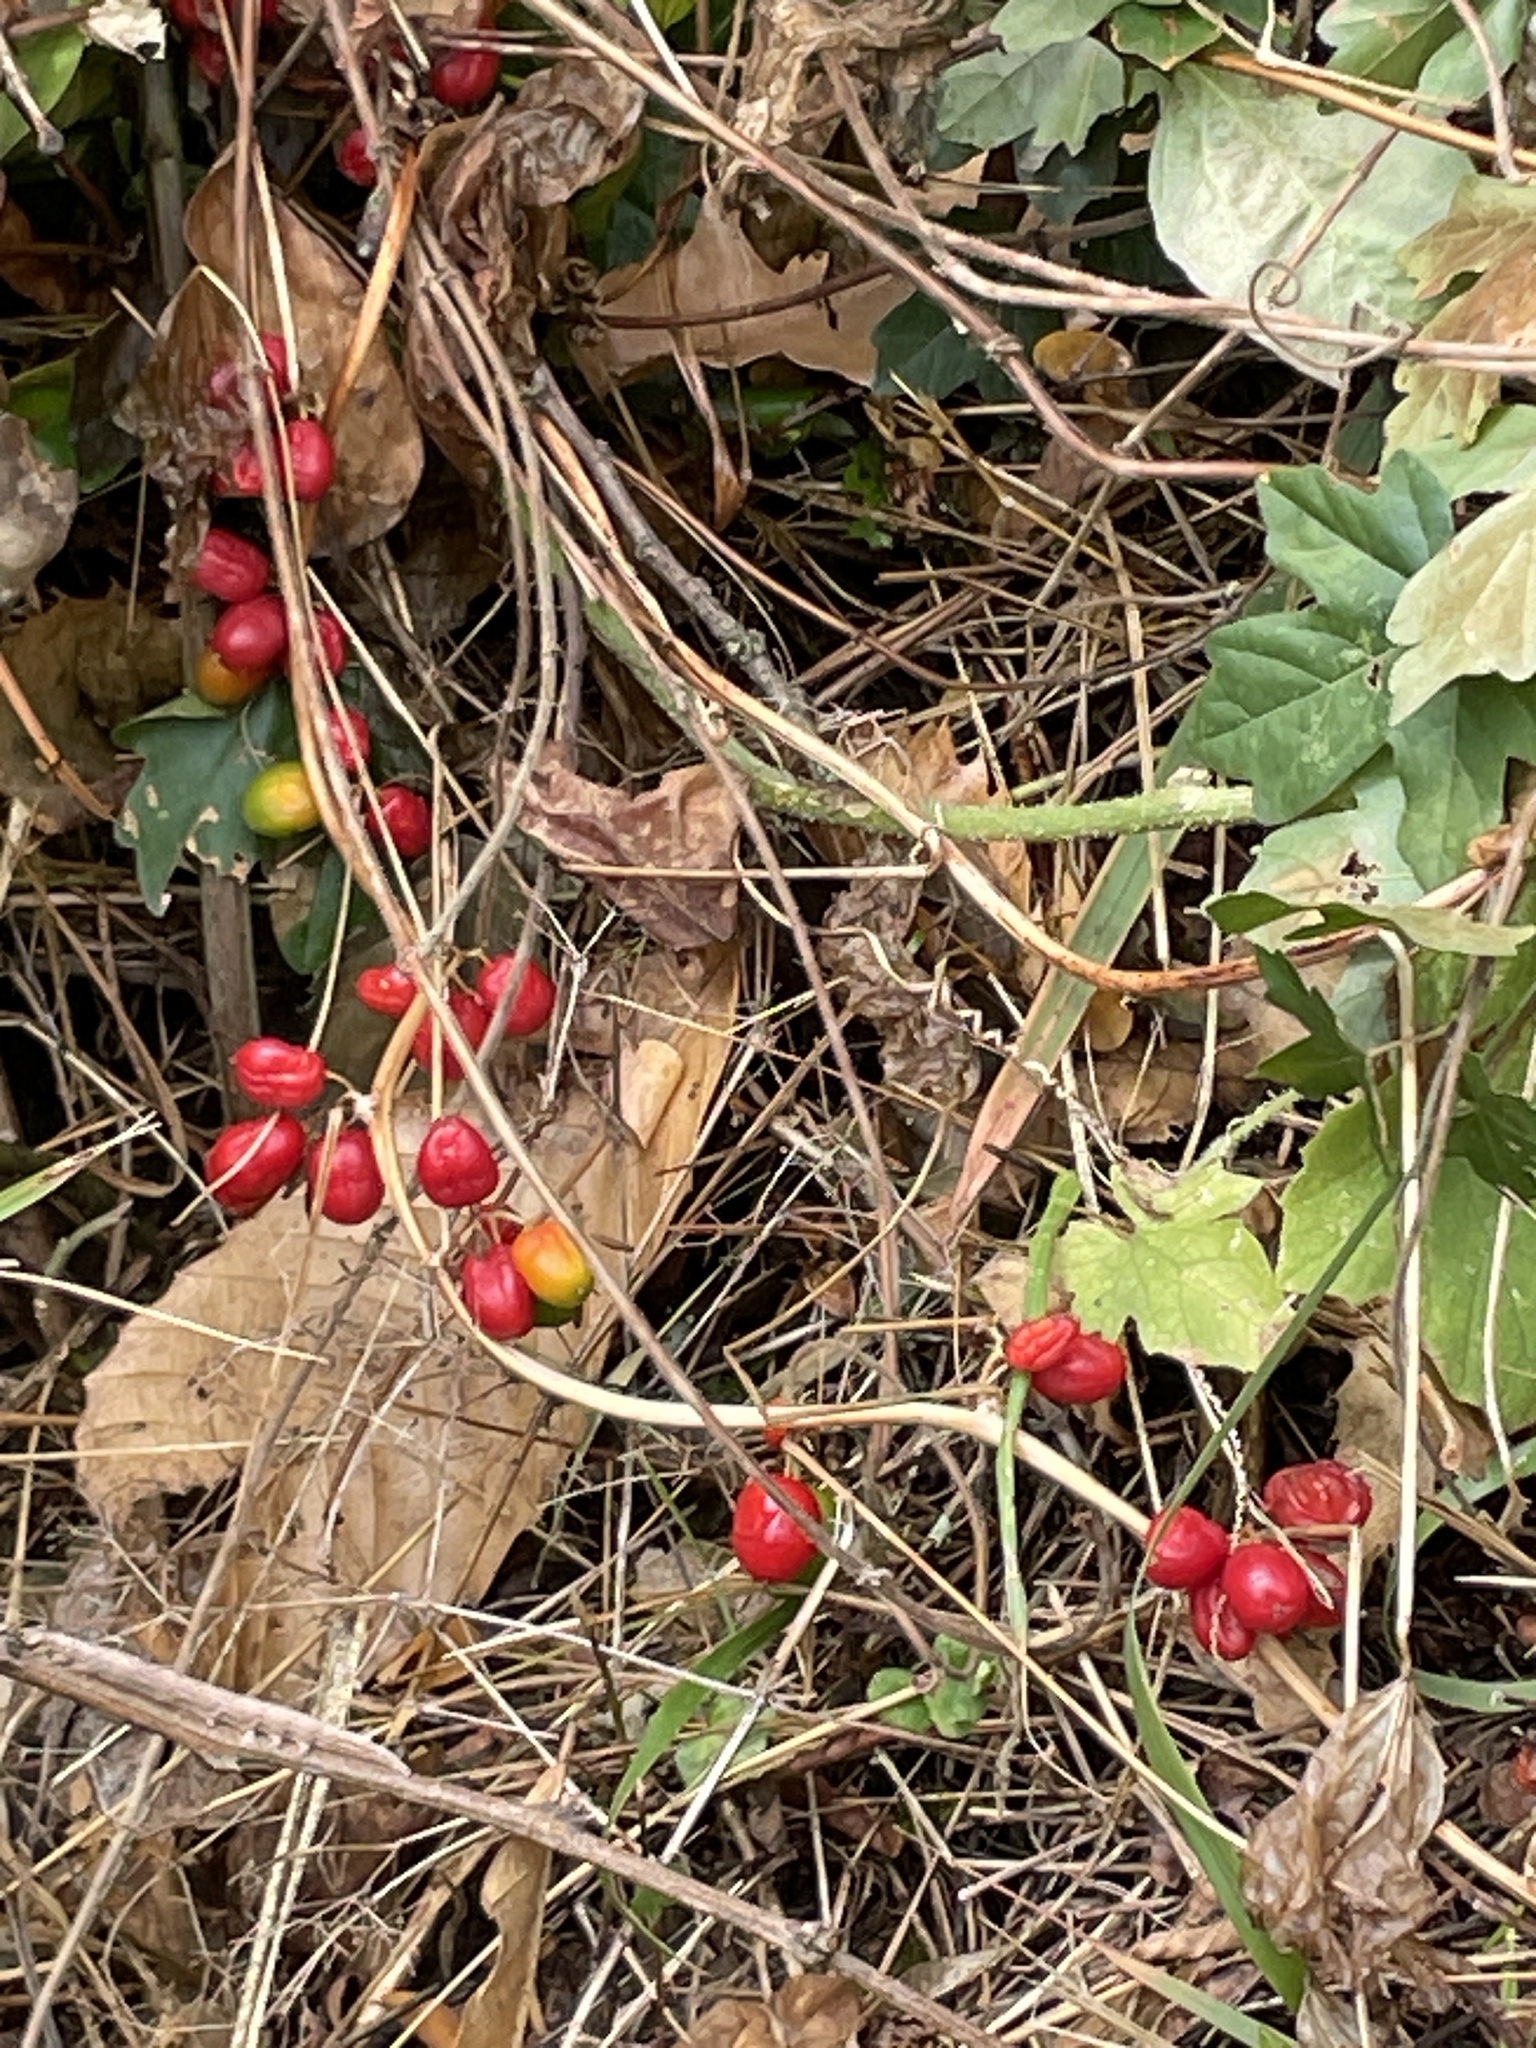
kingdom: Plantae
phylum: Tracheophyta
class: Liliopsida
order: Dioscoreales
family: Dioscoreaceae
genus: Dioscorea
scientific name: Dioscorea communis
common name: Black-bindweed
